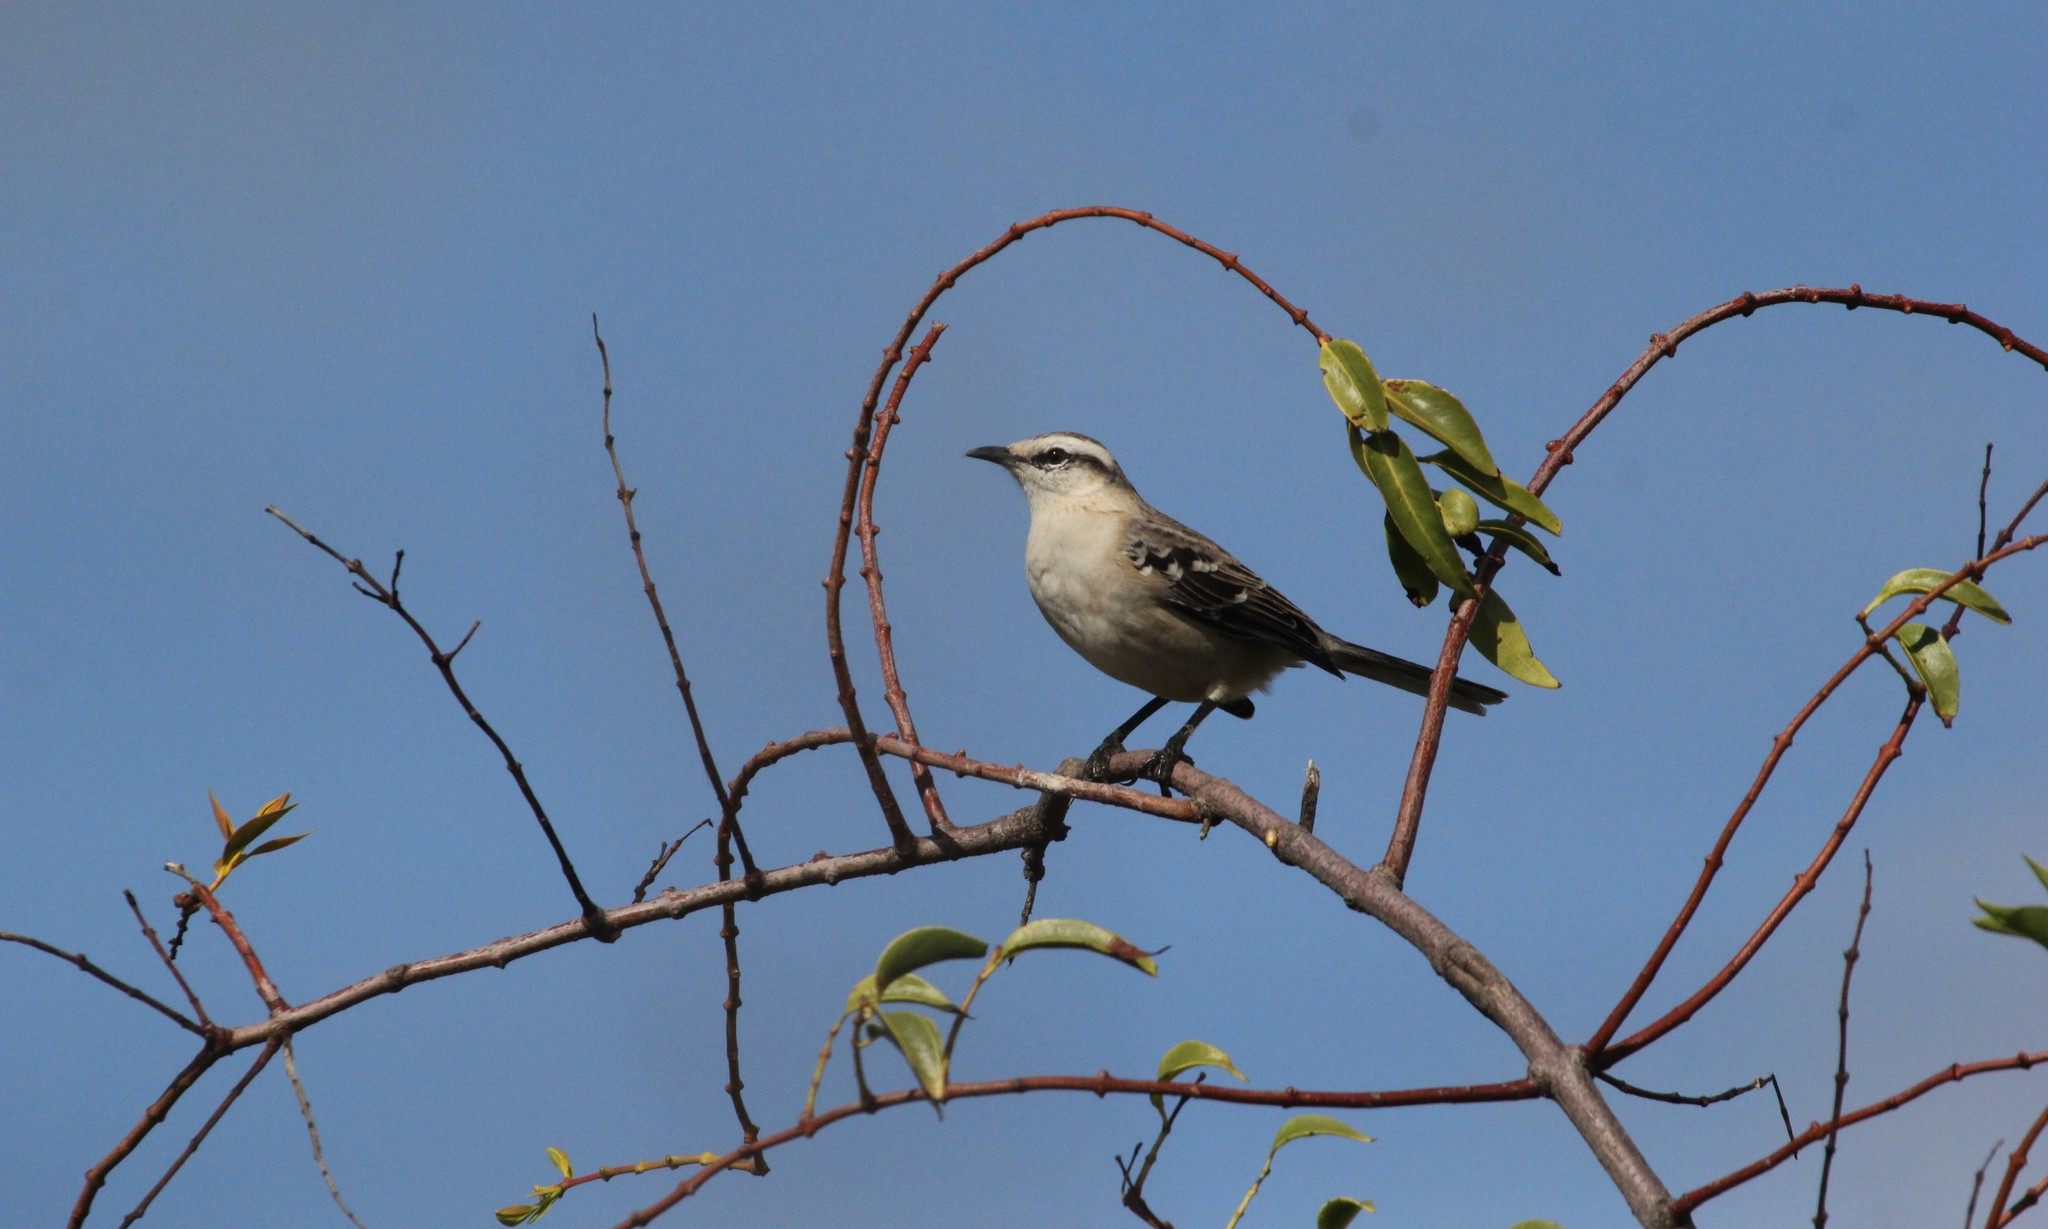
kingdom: Animalia
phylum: Chordata
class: Aves
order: Passeriformes
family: Mimidae
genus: Mimus
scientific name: Mimus saturninus
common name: Chalk-browed mockingbird
